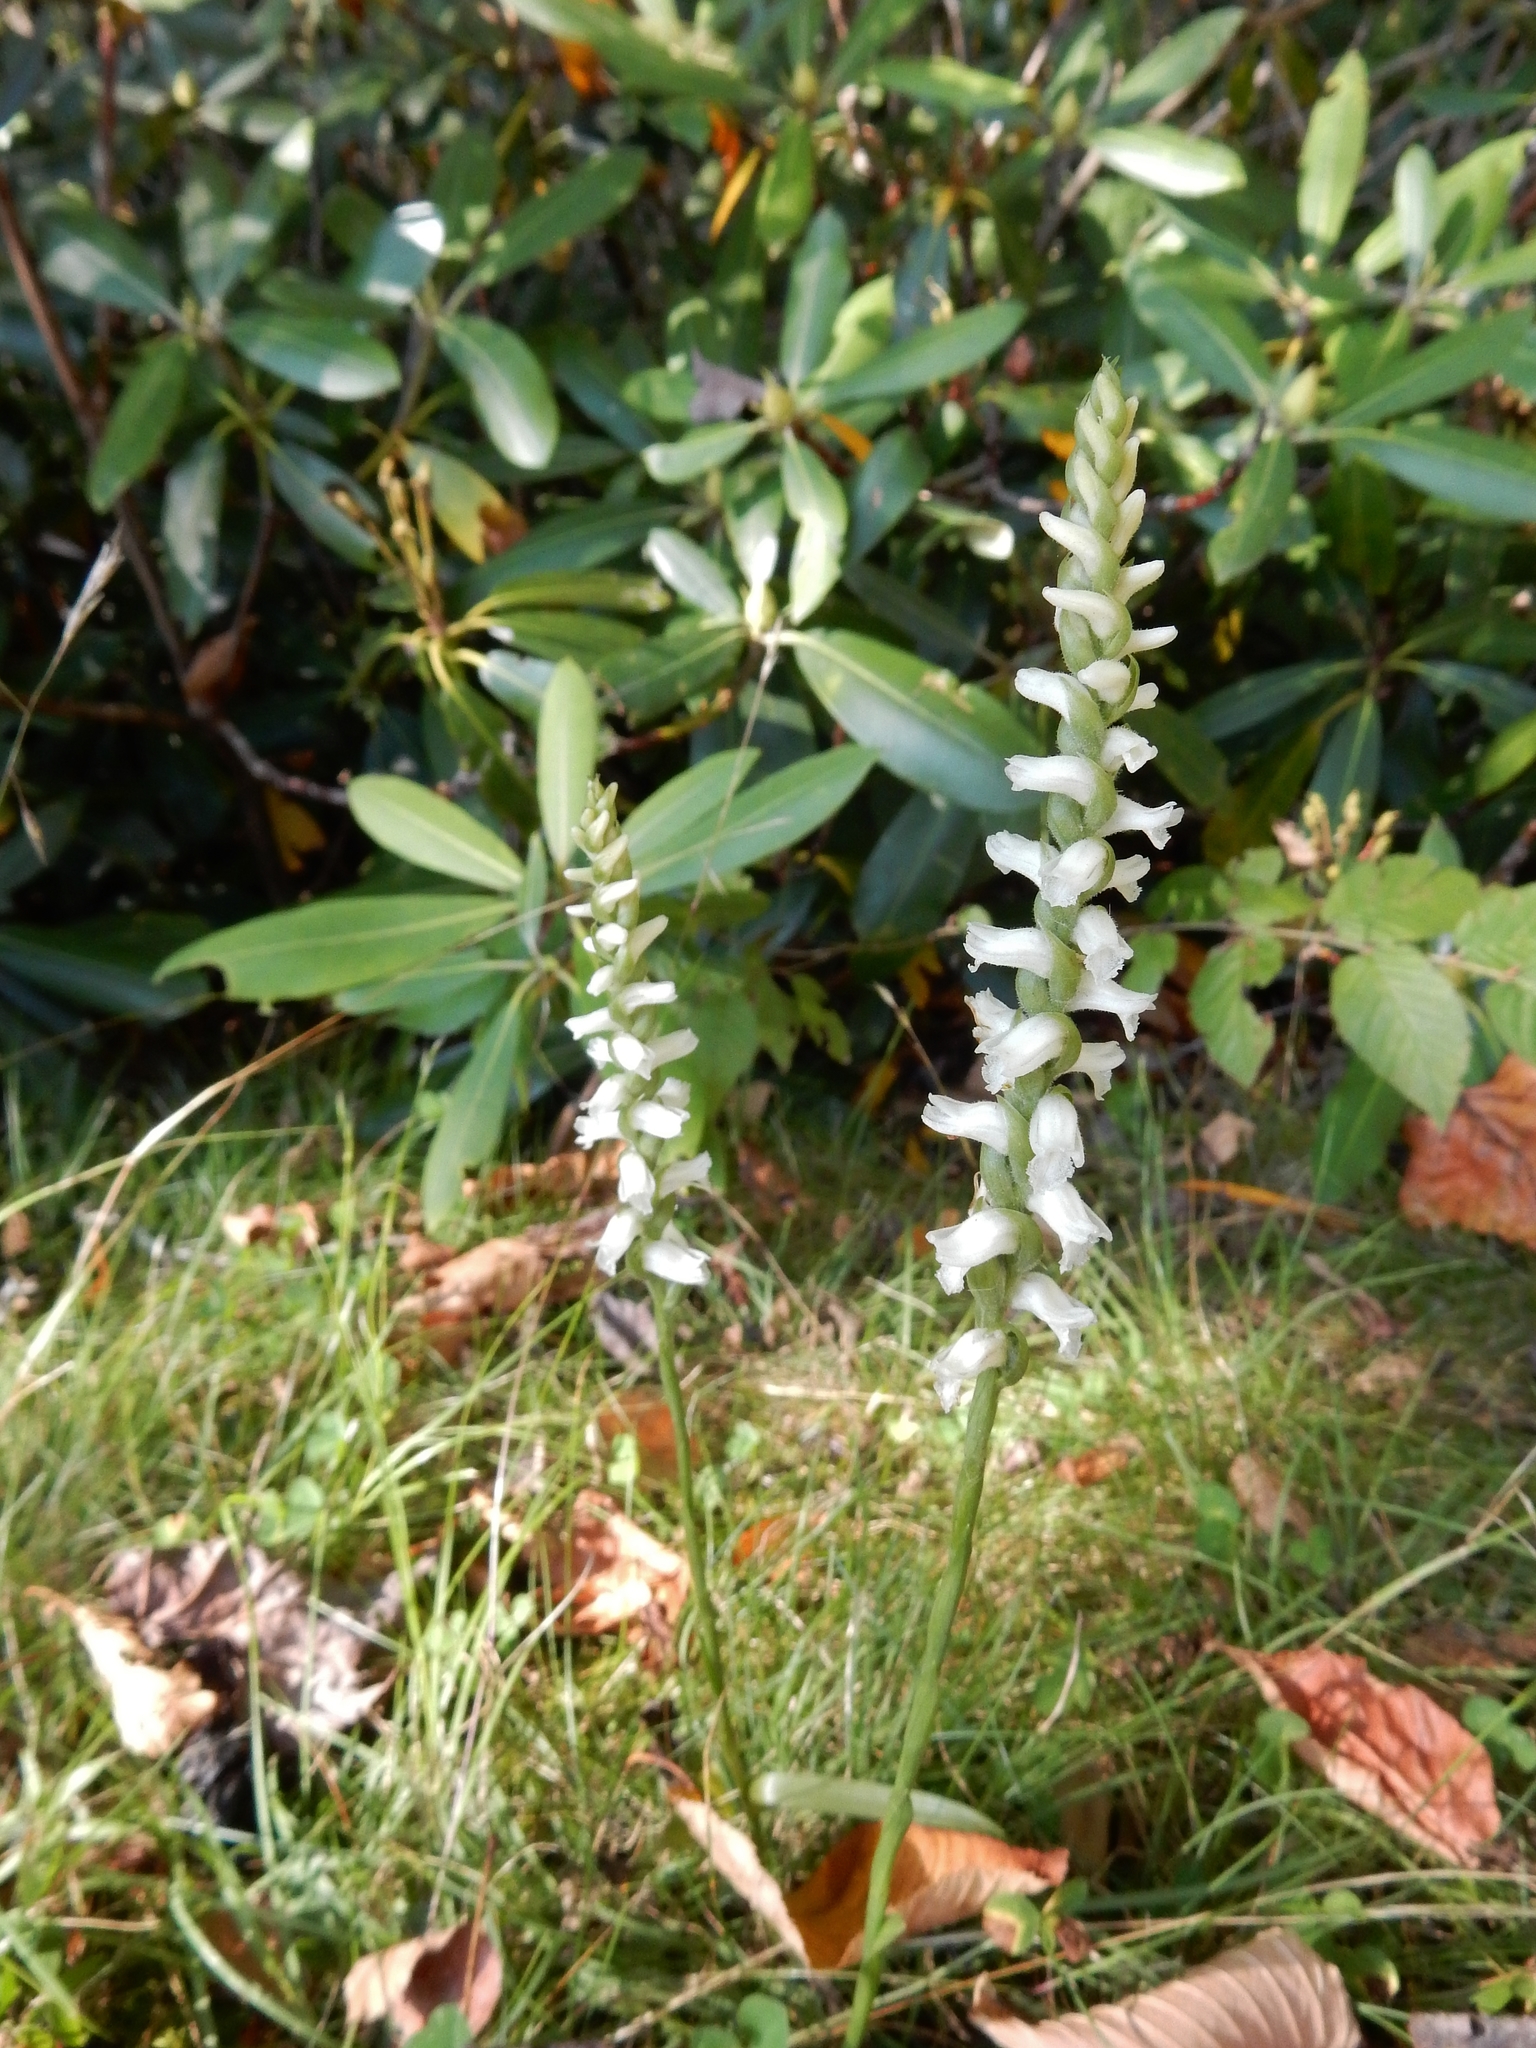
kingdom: Plantae
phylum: Tracheophyta
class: Liliopsida
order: Asparagales
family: Orchidaceae
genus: Spiranthes
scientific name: Spiranthes cernua
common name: Dropping ladies'-tresses
